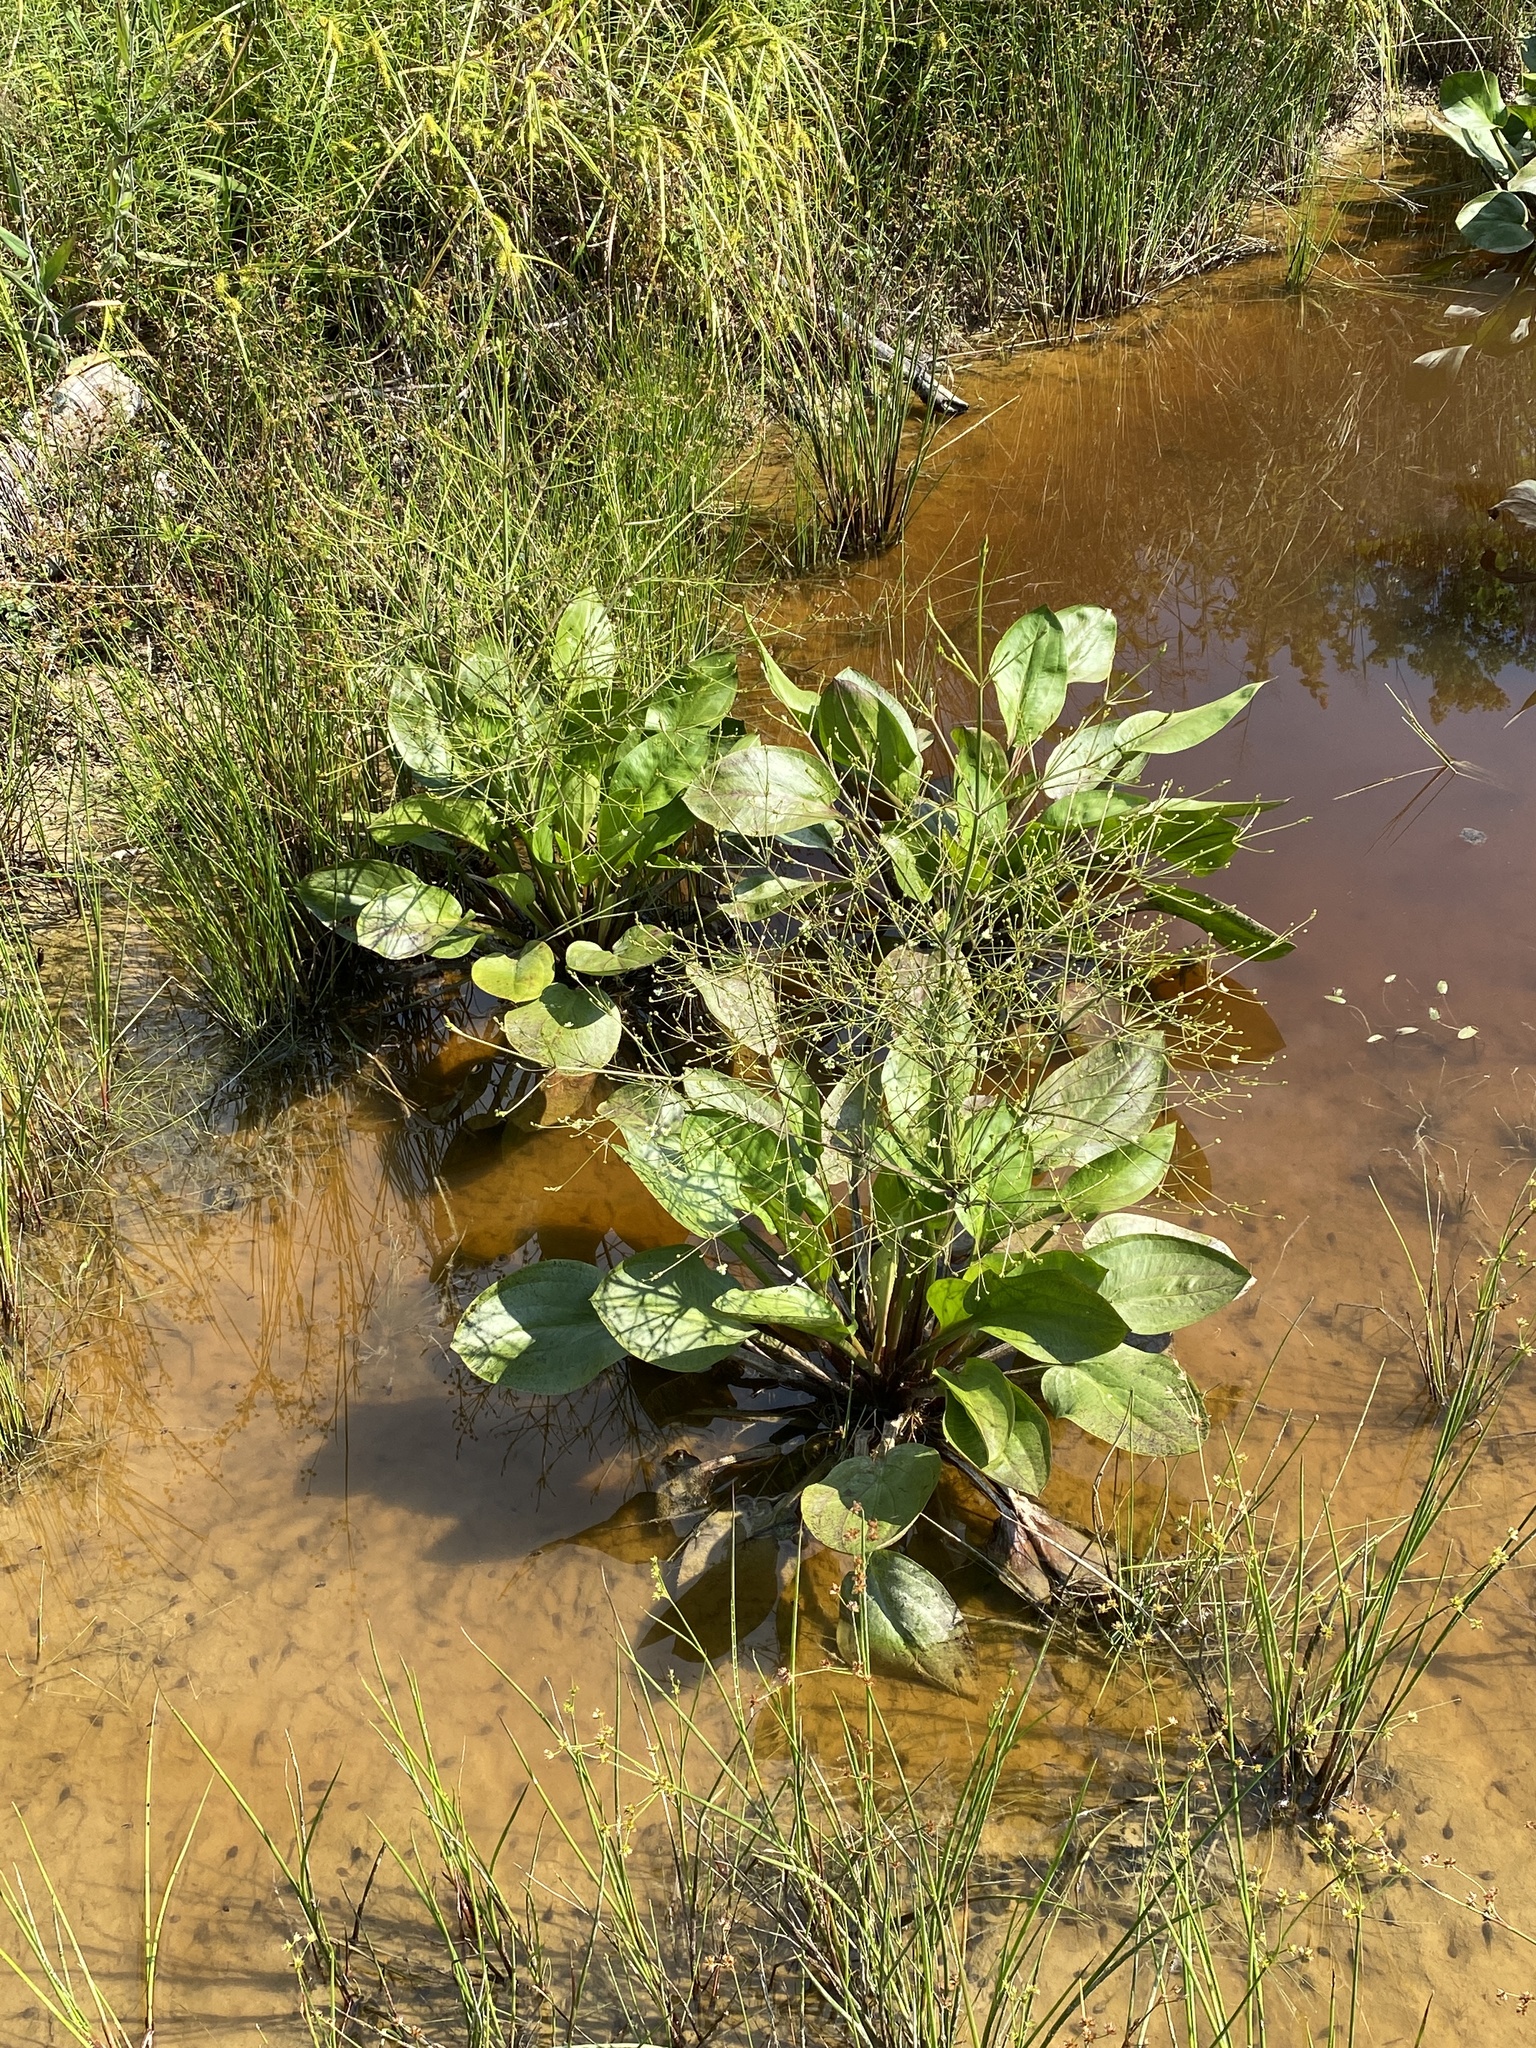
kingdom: Plantae
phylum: Tracheophyta
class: Liliopsida
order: Alismatales
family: Alismataceae
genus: Alisma
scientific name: Alisma subcordatum
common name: Southern water-plantain
